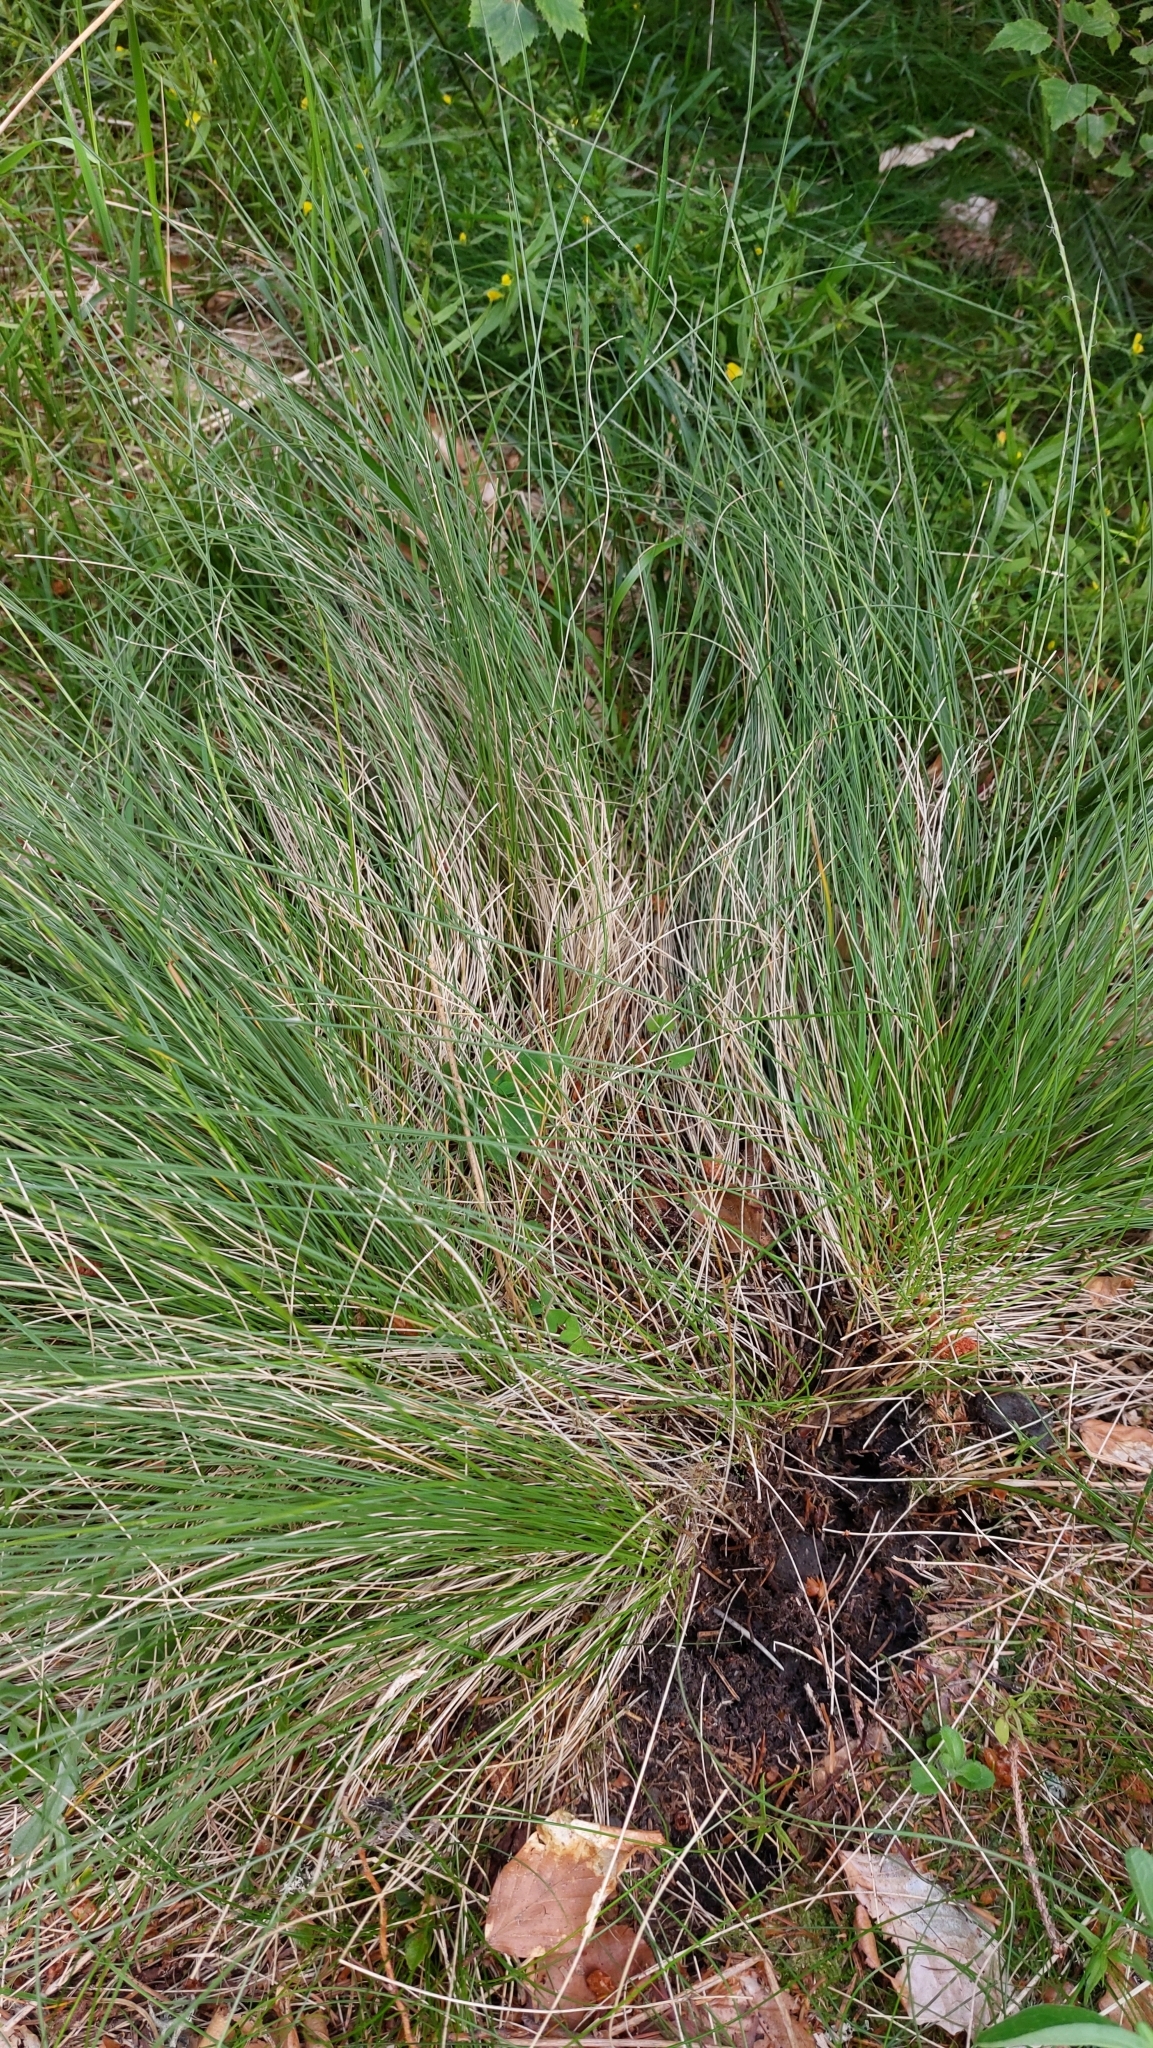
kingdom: Plantae
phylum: Tracheophyta
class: Liliopsida
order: Poales
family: Poaceae
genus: Nardus
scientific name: Nardus stricta
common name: Mat-grass
